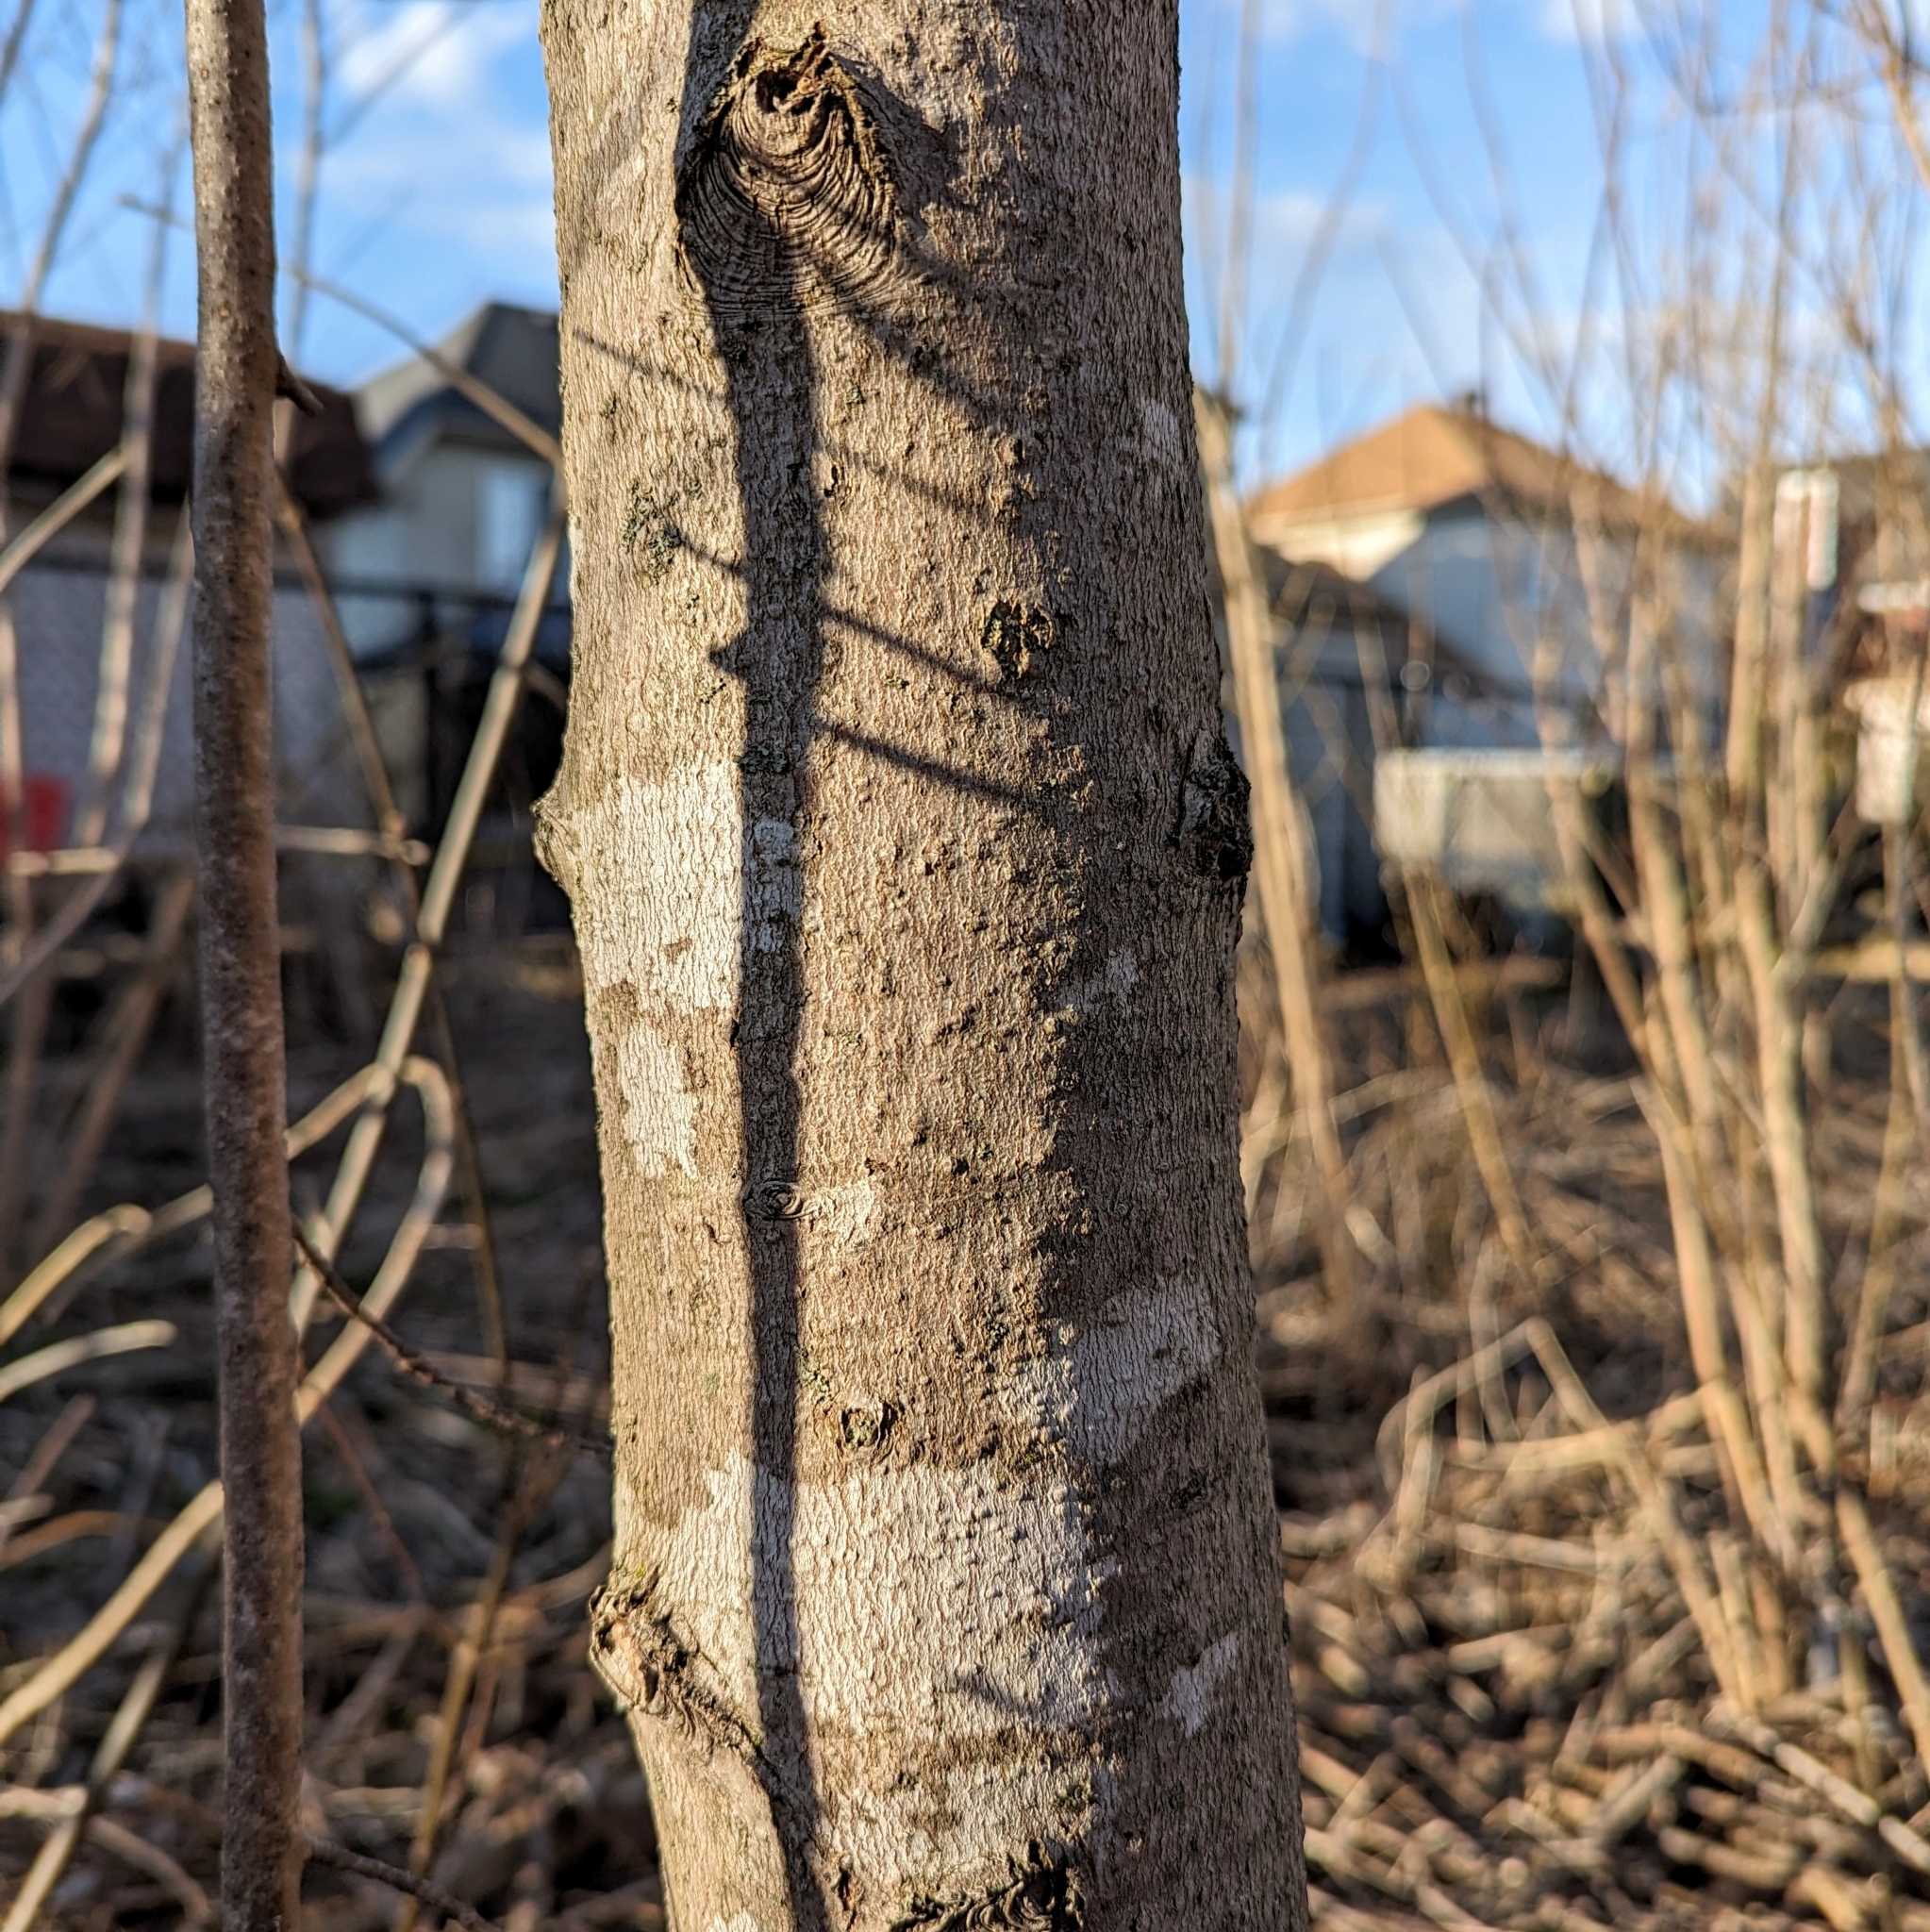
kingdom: Plantae
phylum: Tracheophyta
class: Magnoliopsida
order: Sapindales
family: Sapindaceae
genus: Acer
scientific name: Acer saccharinum
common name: Silver maple
